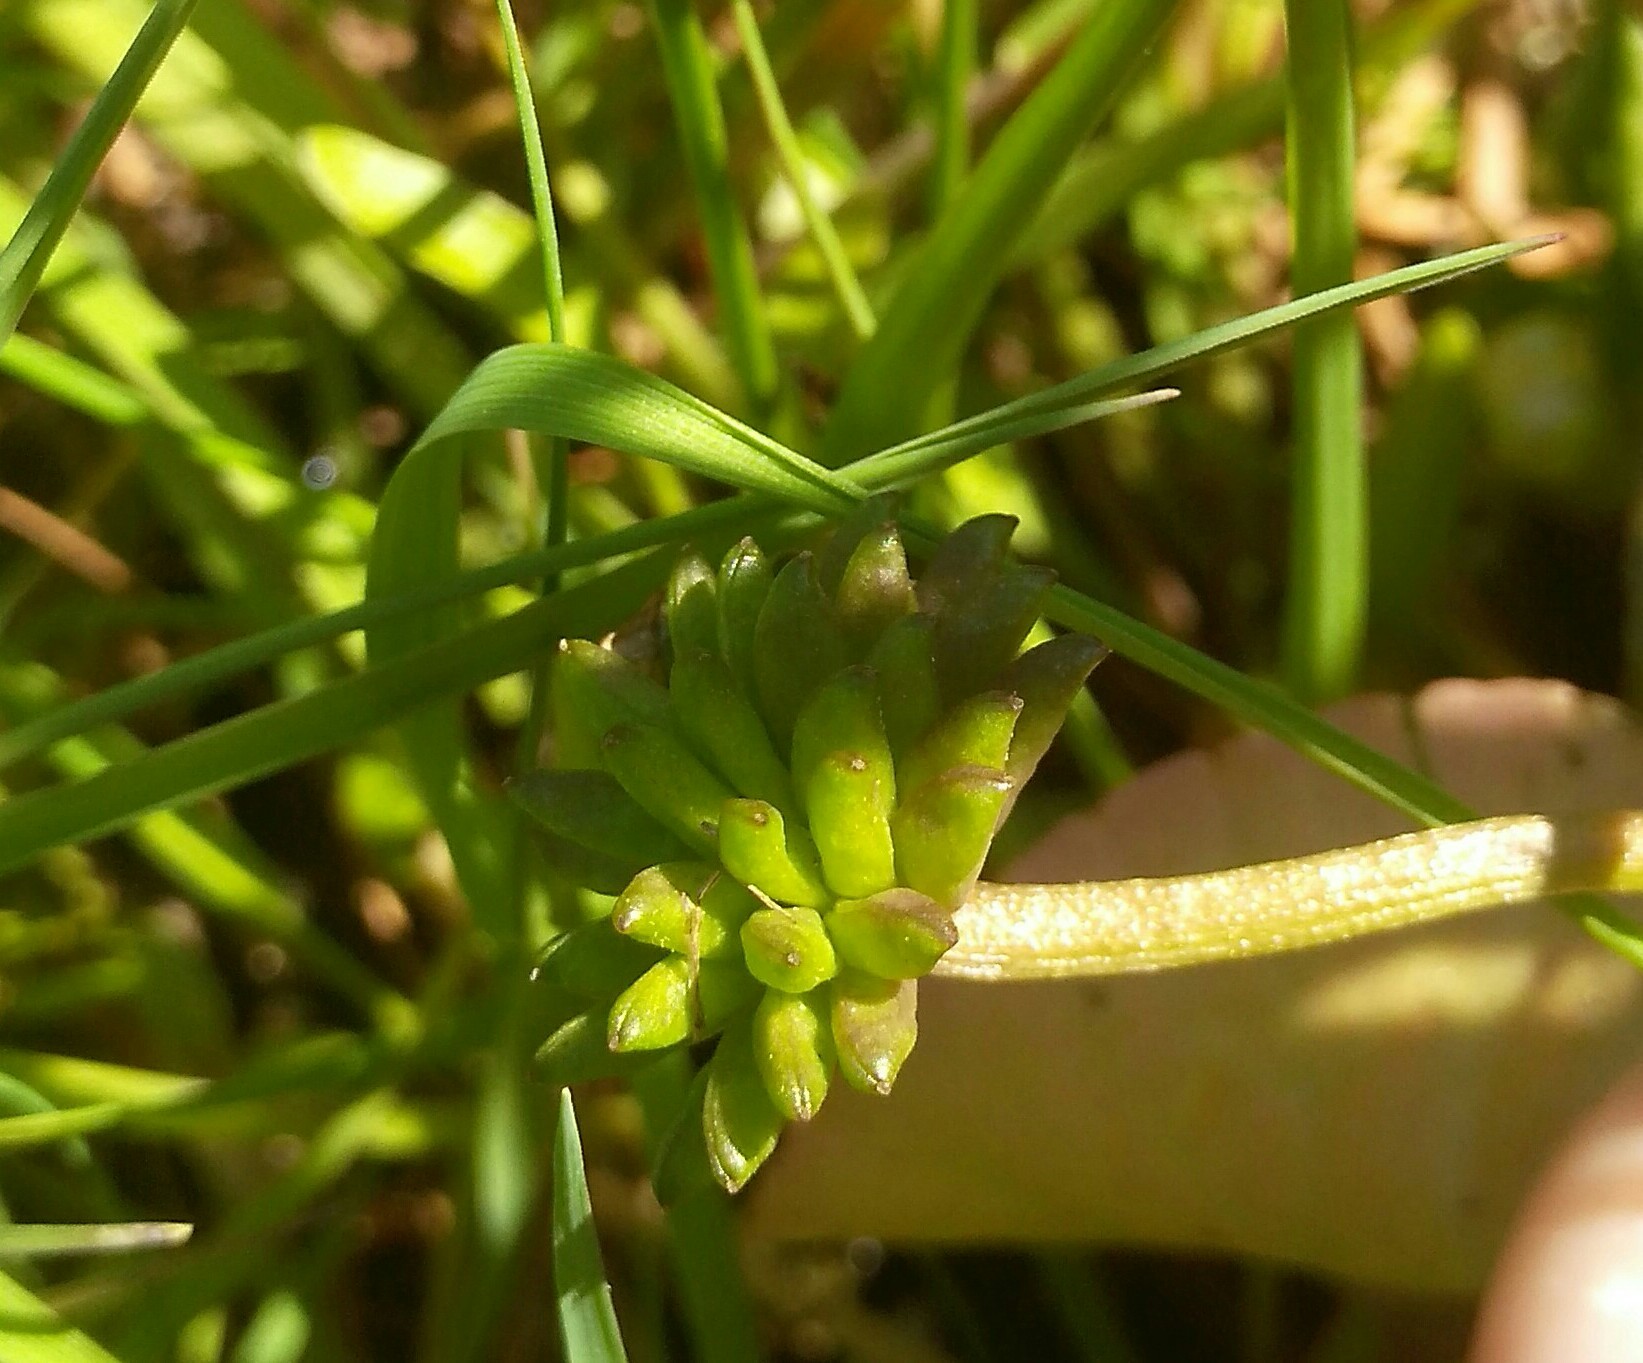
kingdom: Plantae
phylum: Tracheophyta
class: Magnoliopsida
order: Ranunculales
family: Ranunculaceae
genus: Caltha
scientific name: Caltha natans
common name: Floating marsh marigold
